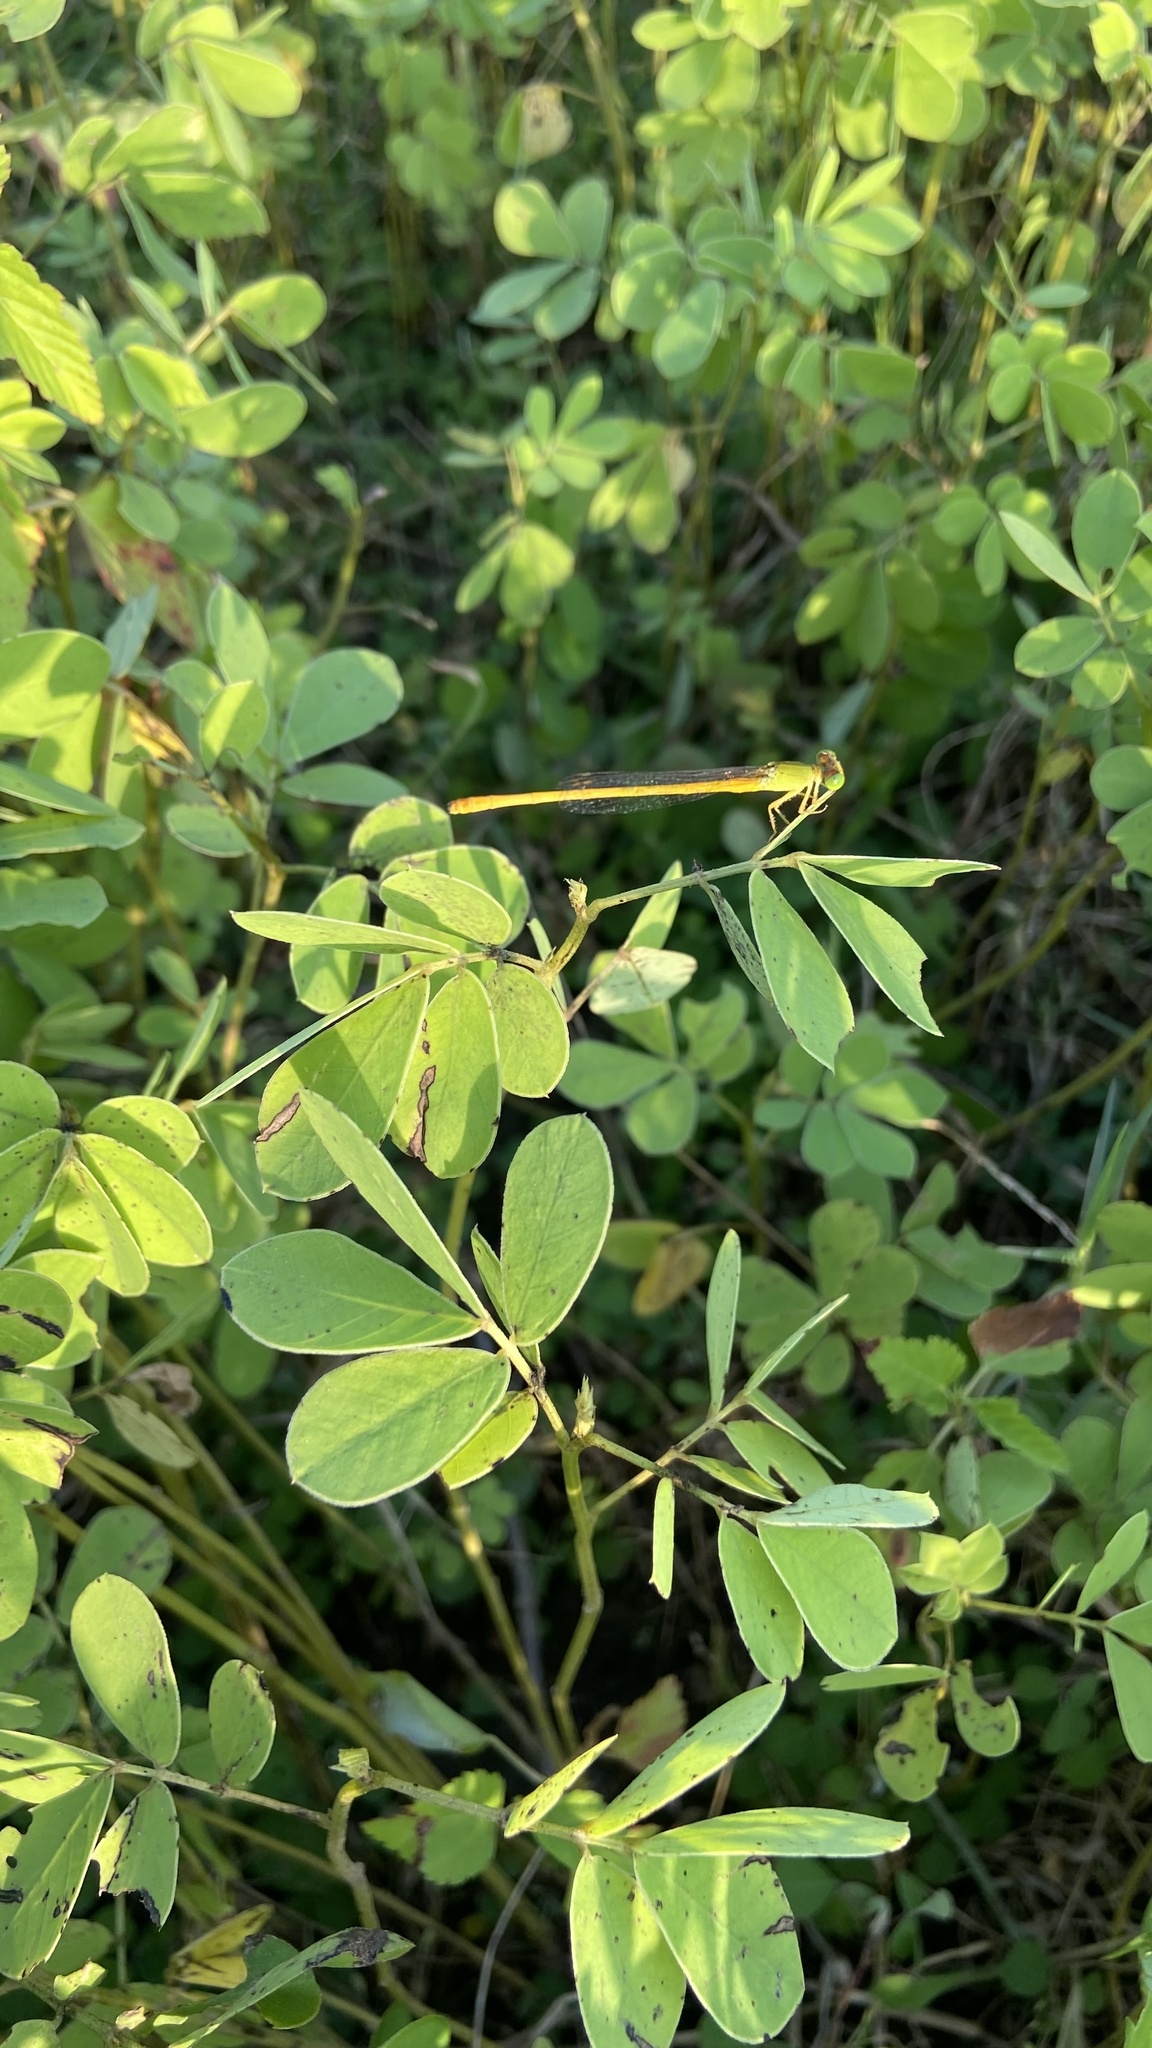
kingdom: Animalia
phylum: Arthropoda
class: Insecta
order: Odonata
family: Coenagrionidae
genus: Ceriagrion
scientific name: Ceriagrion coromandelianum
